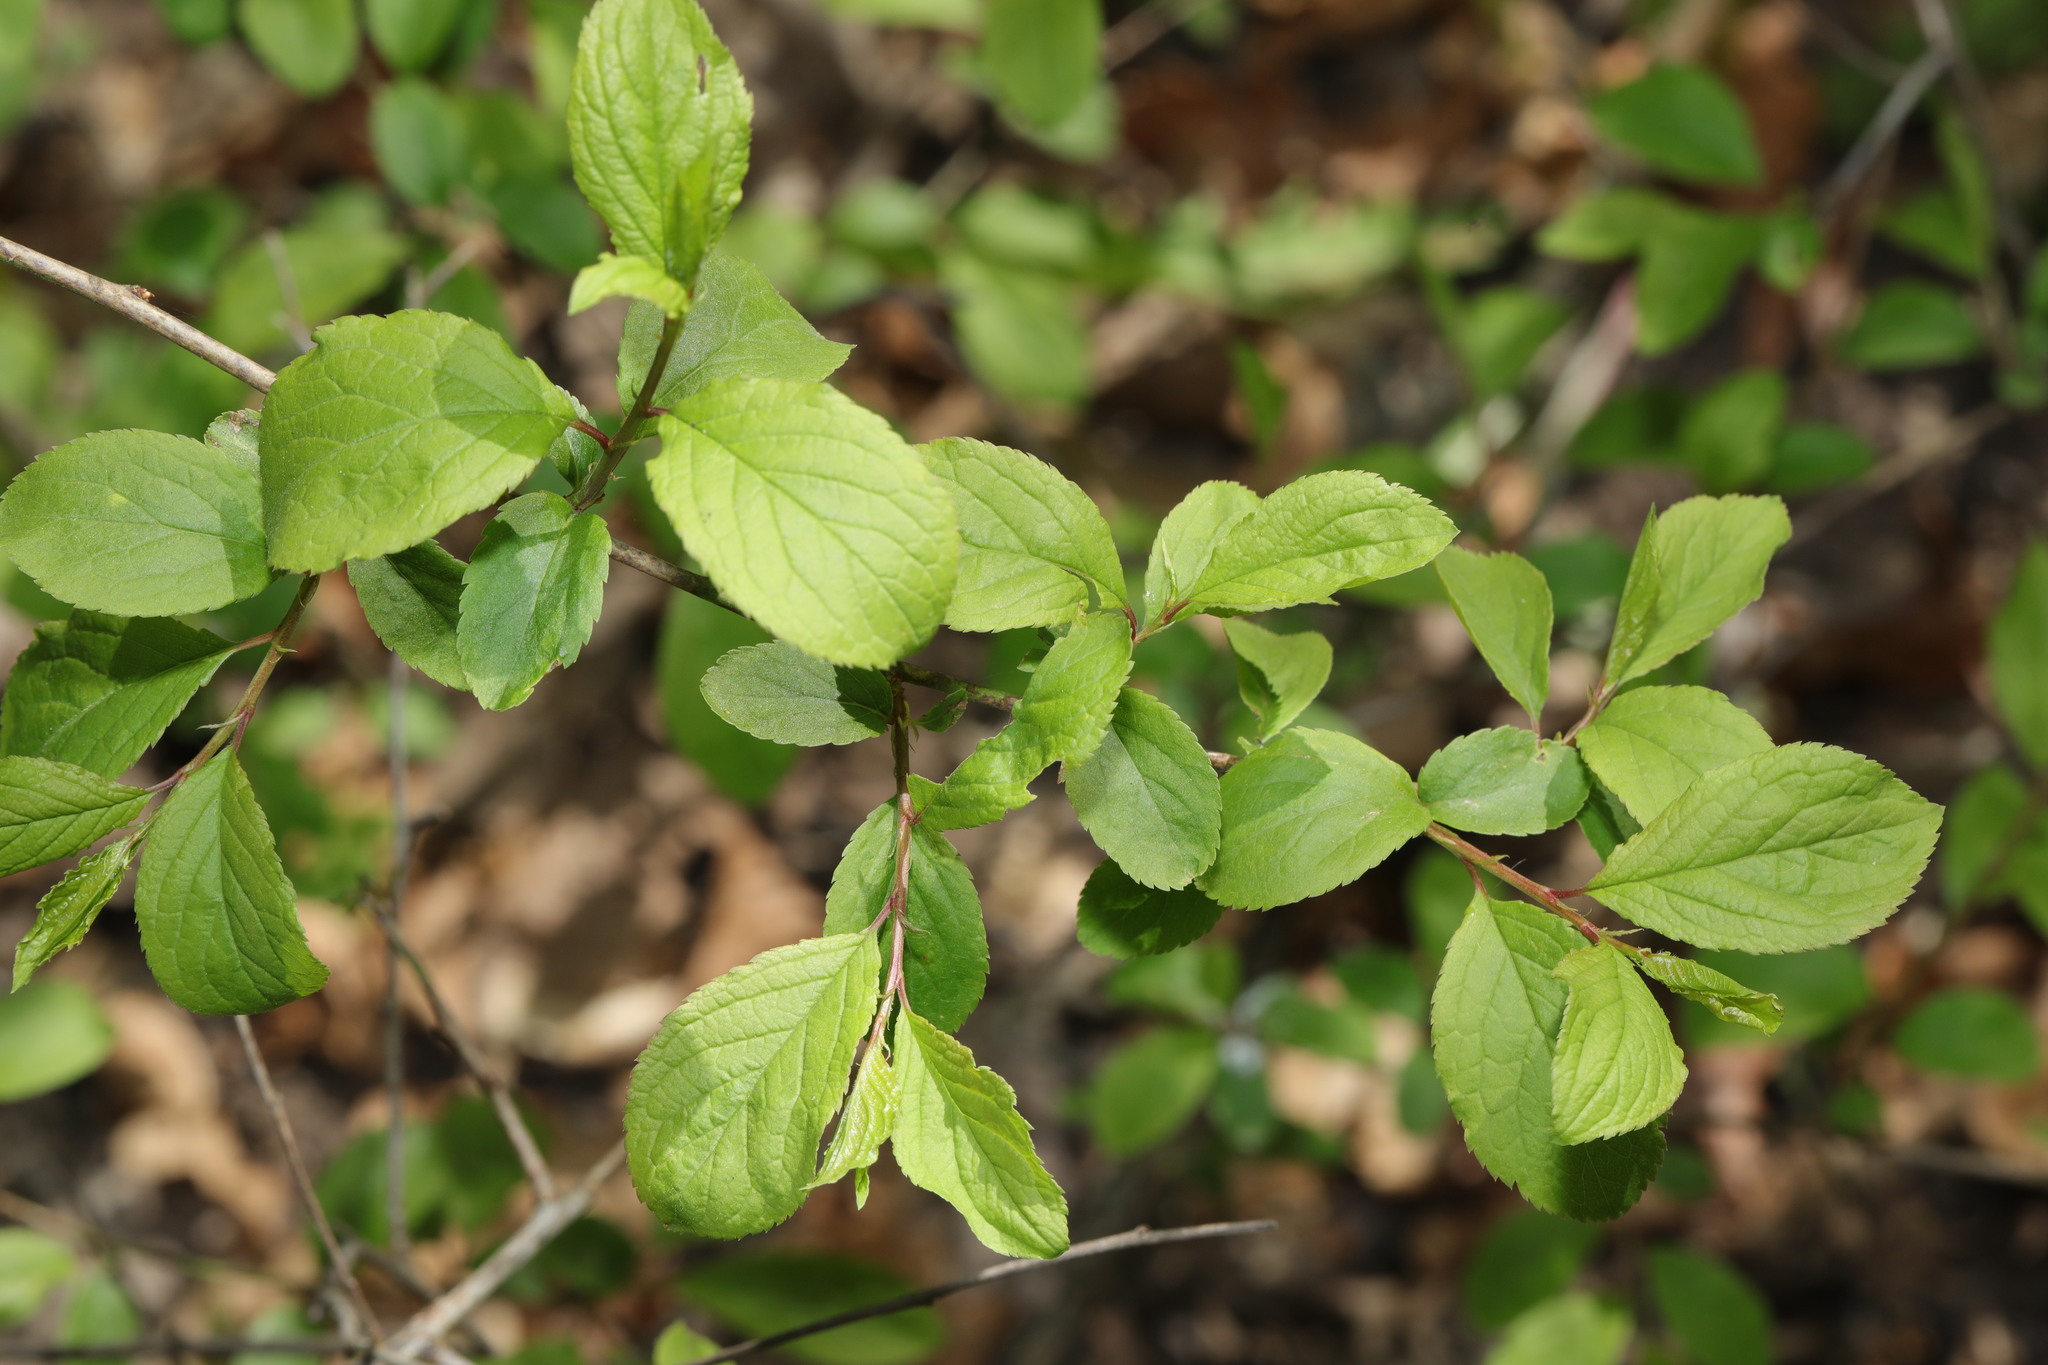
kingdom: Plantae
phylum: Tracheophyta
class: Magnoliopsida
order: Rosales
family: Rosaceae
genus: Prunus
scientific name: Prunus spinosa
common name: Blackthorn
